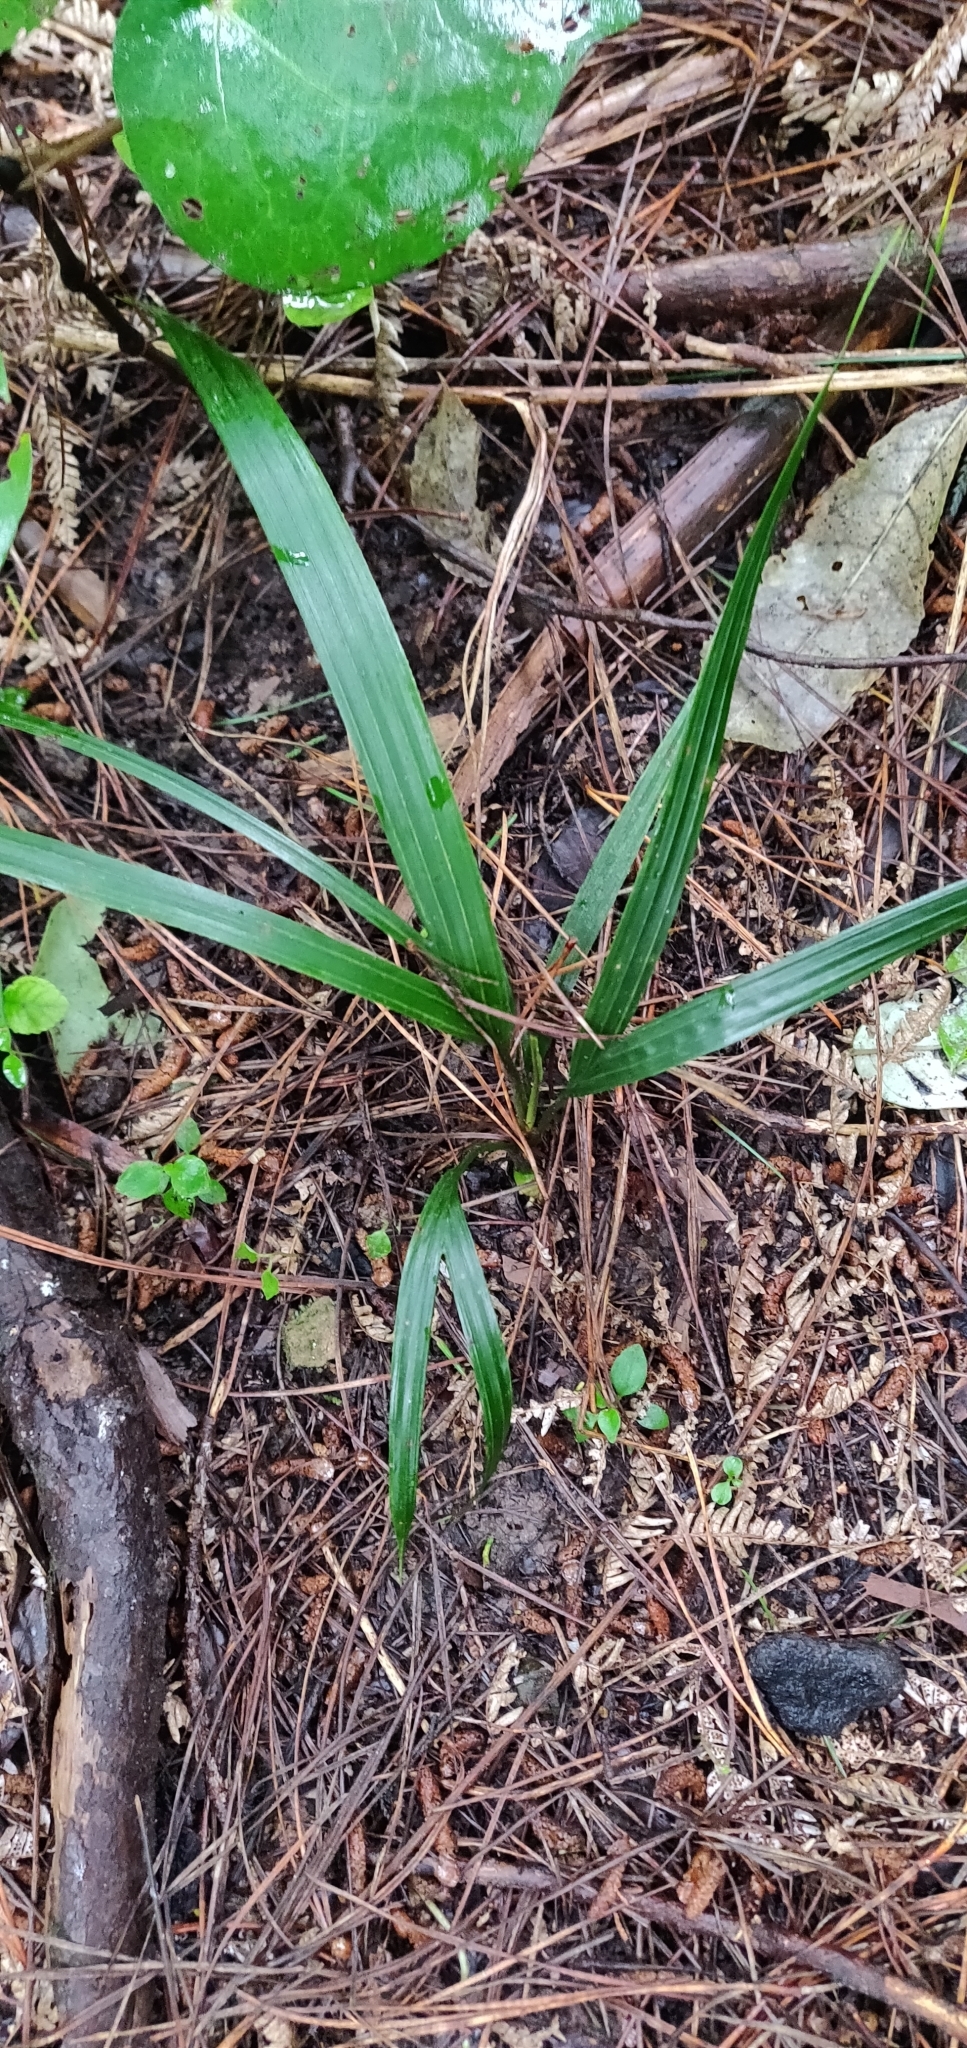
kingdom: Plantae
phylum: Tracheophyta
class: Liliopsida
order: Arecales
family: Arecaceae
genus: Rhopalostylis
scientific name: Rhopalostylis sapida
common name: Feather-duster palm
